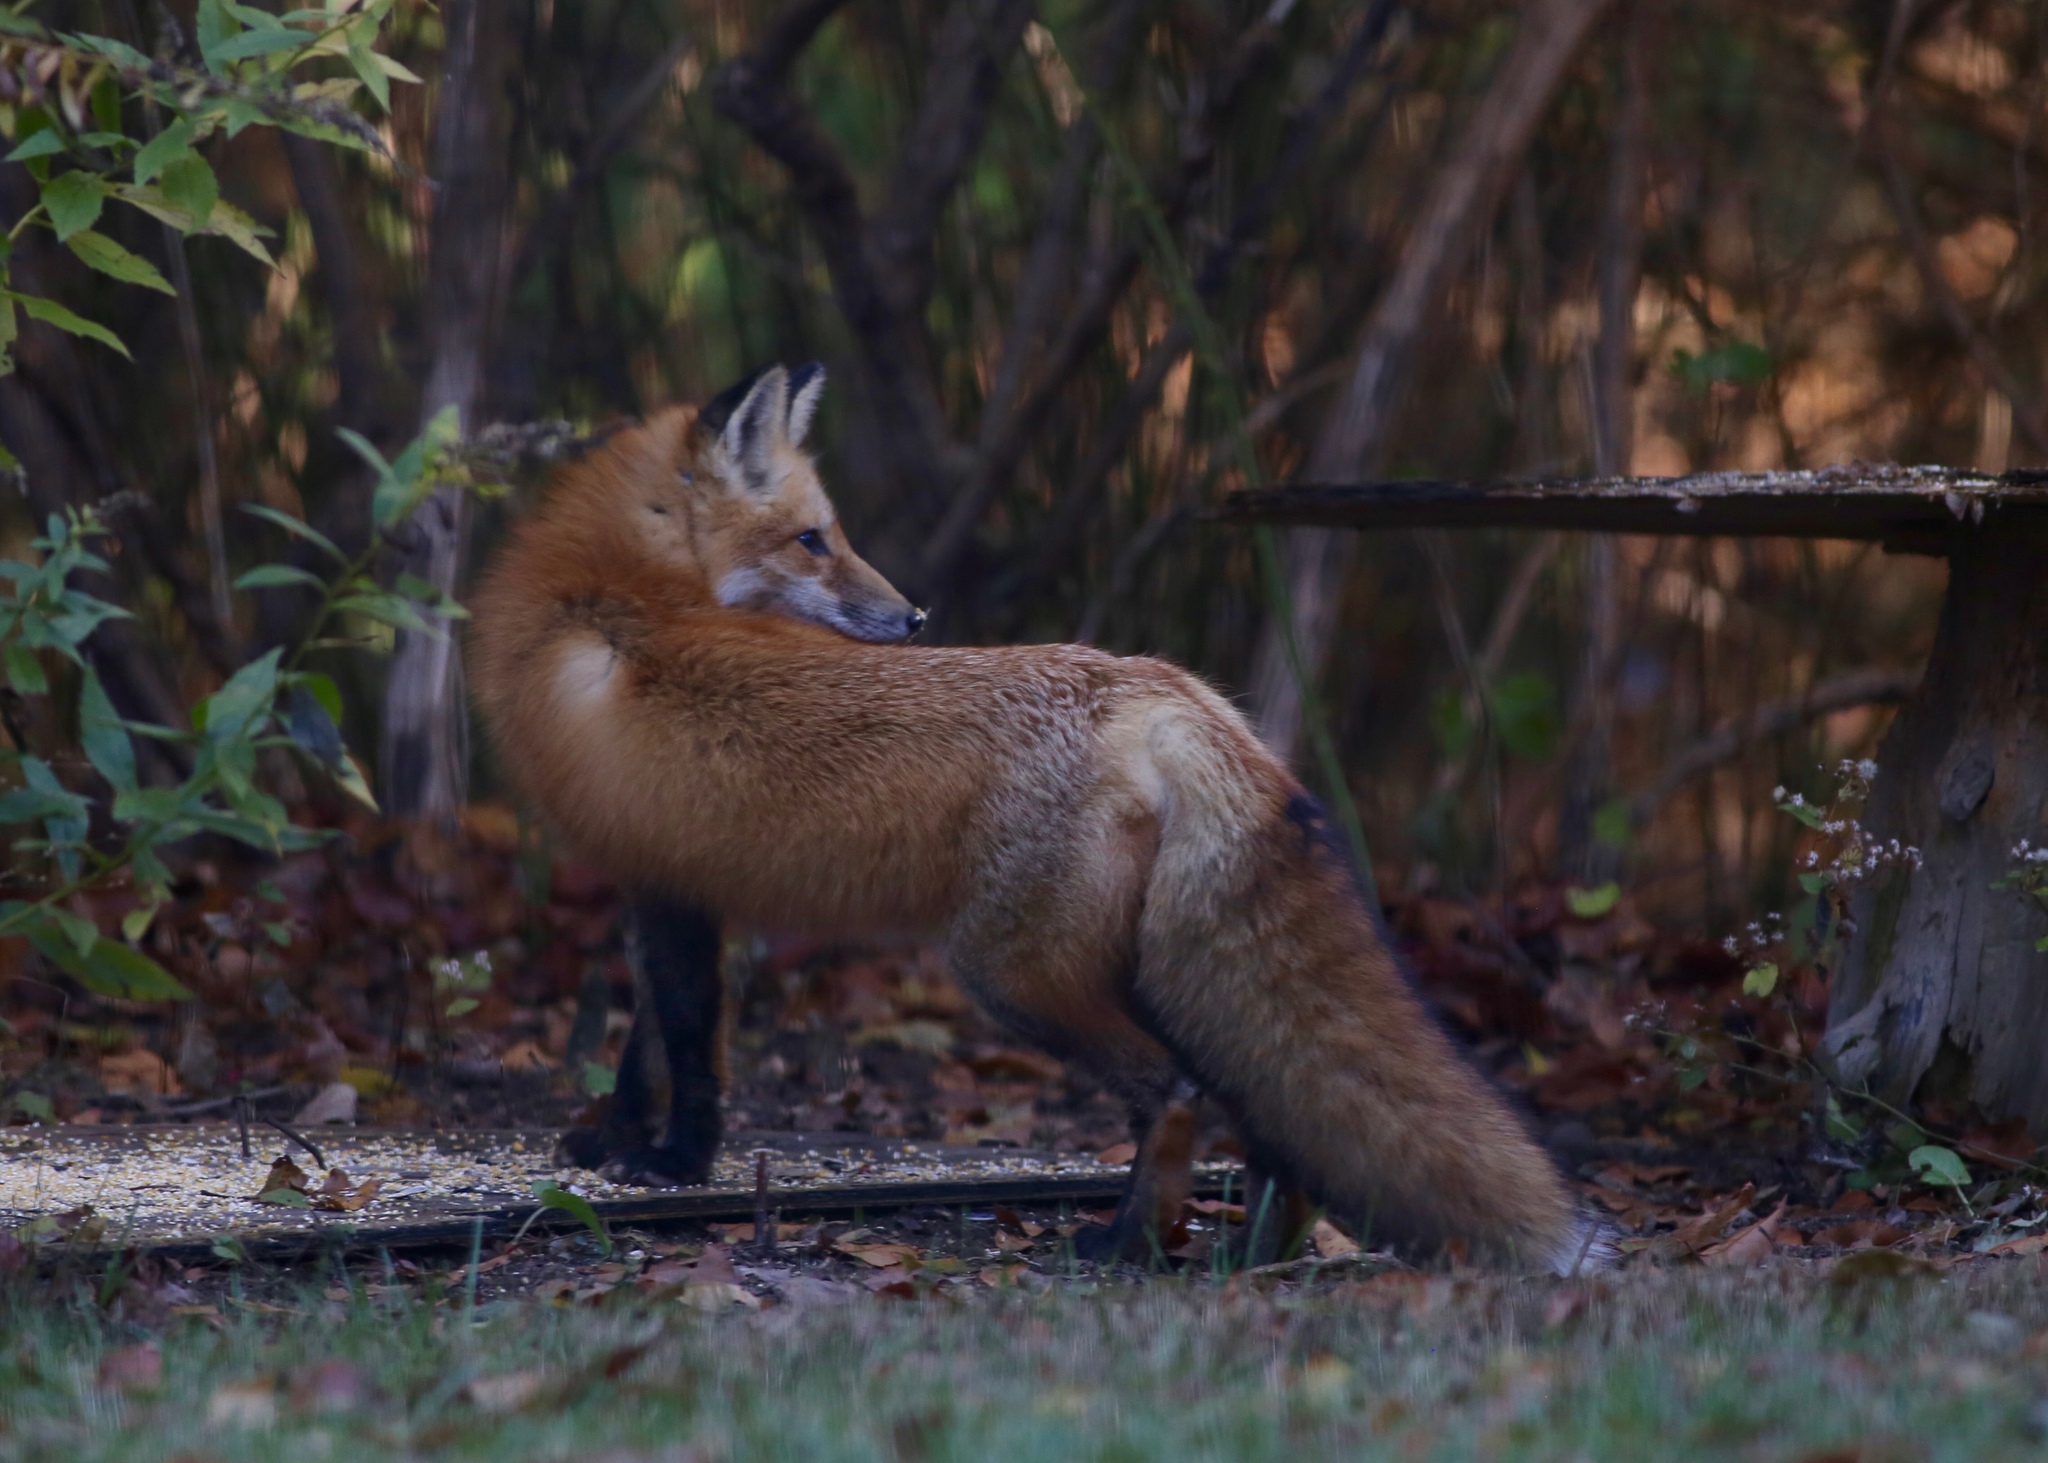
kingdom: Animalia
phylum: Chordata
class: Mammalia
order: Carnivora
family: Canidae
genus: Vulpes
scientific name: Vulpes vulpes
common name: Red fox
